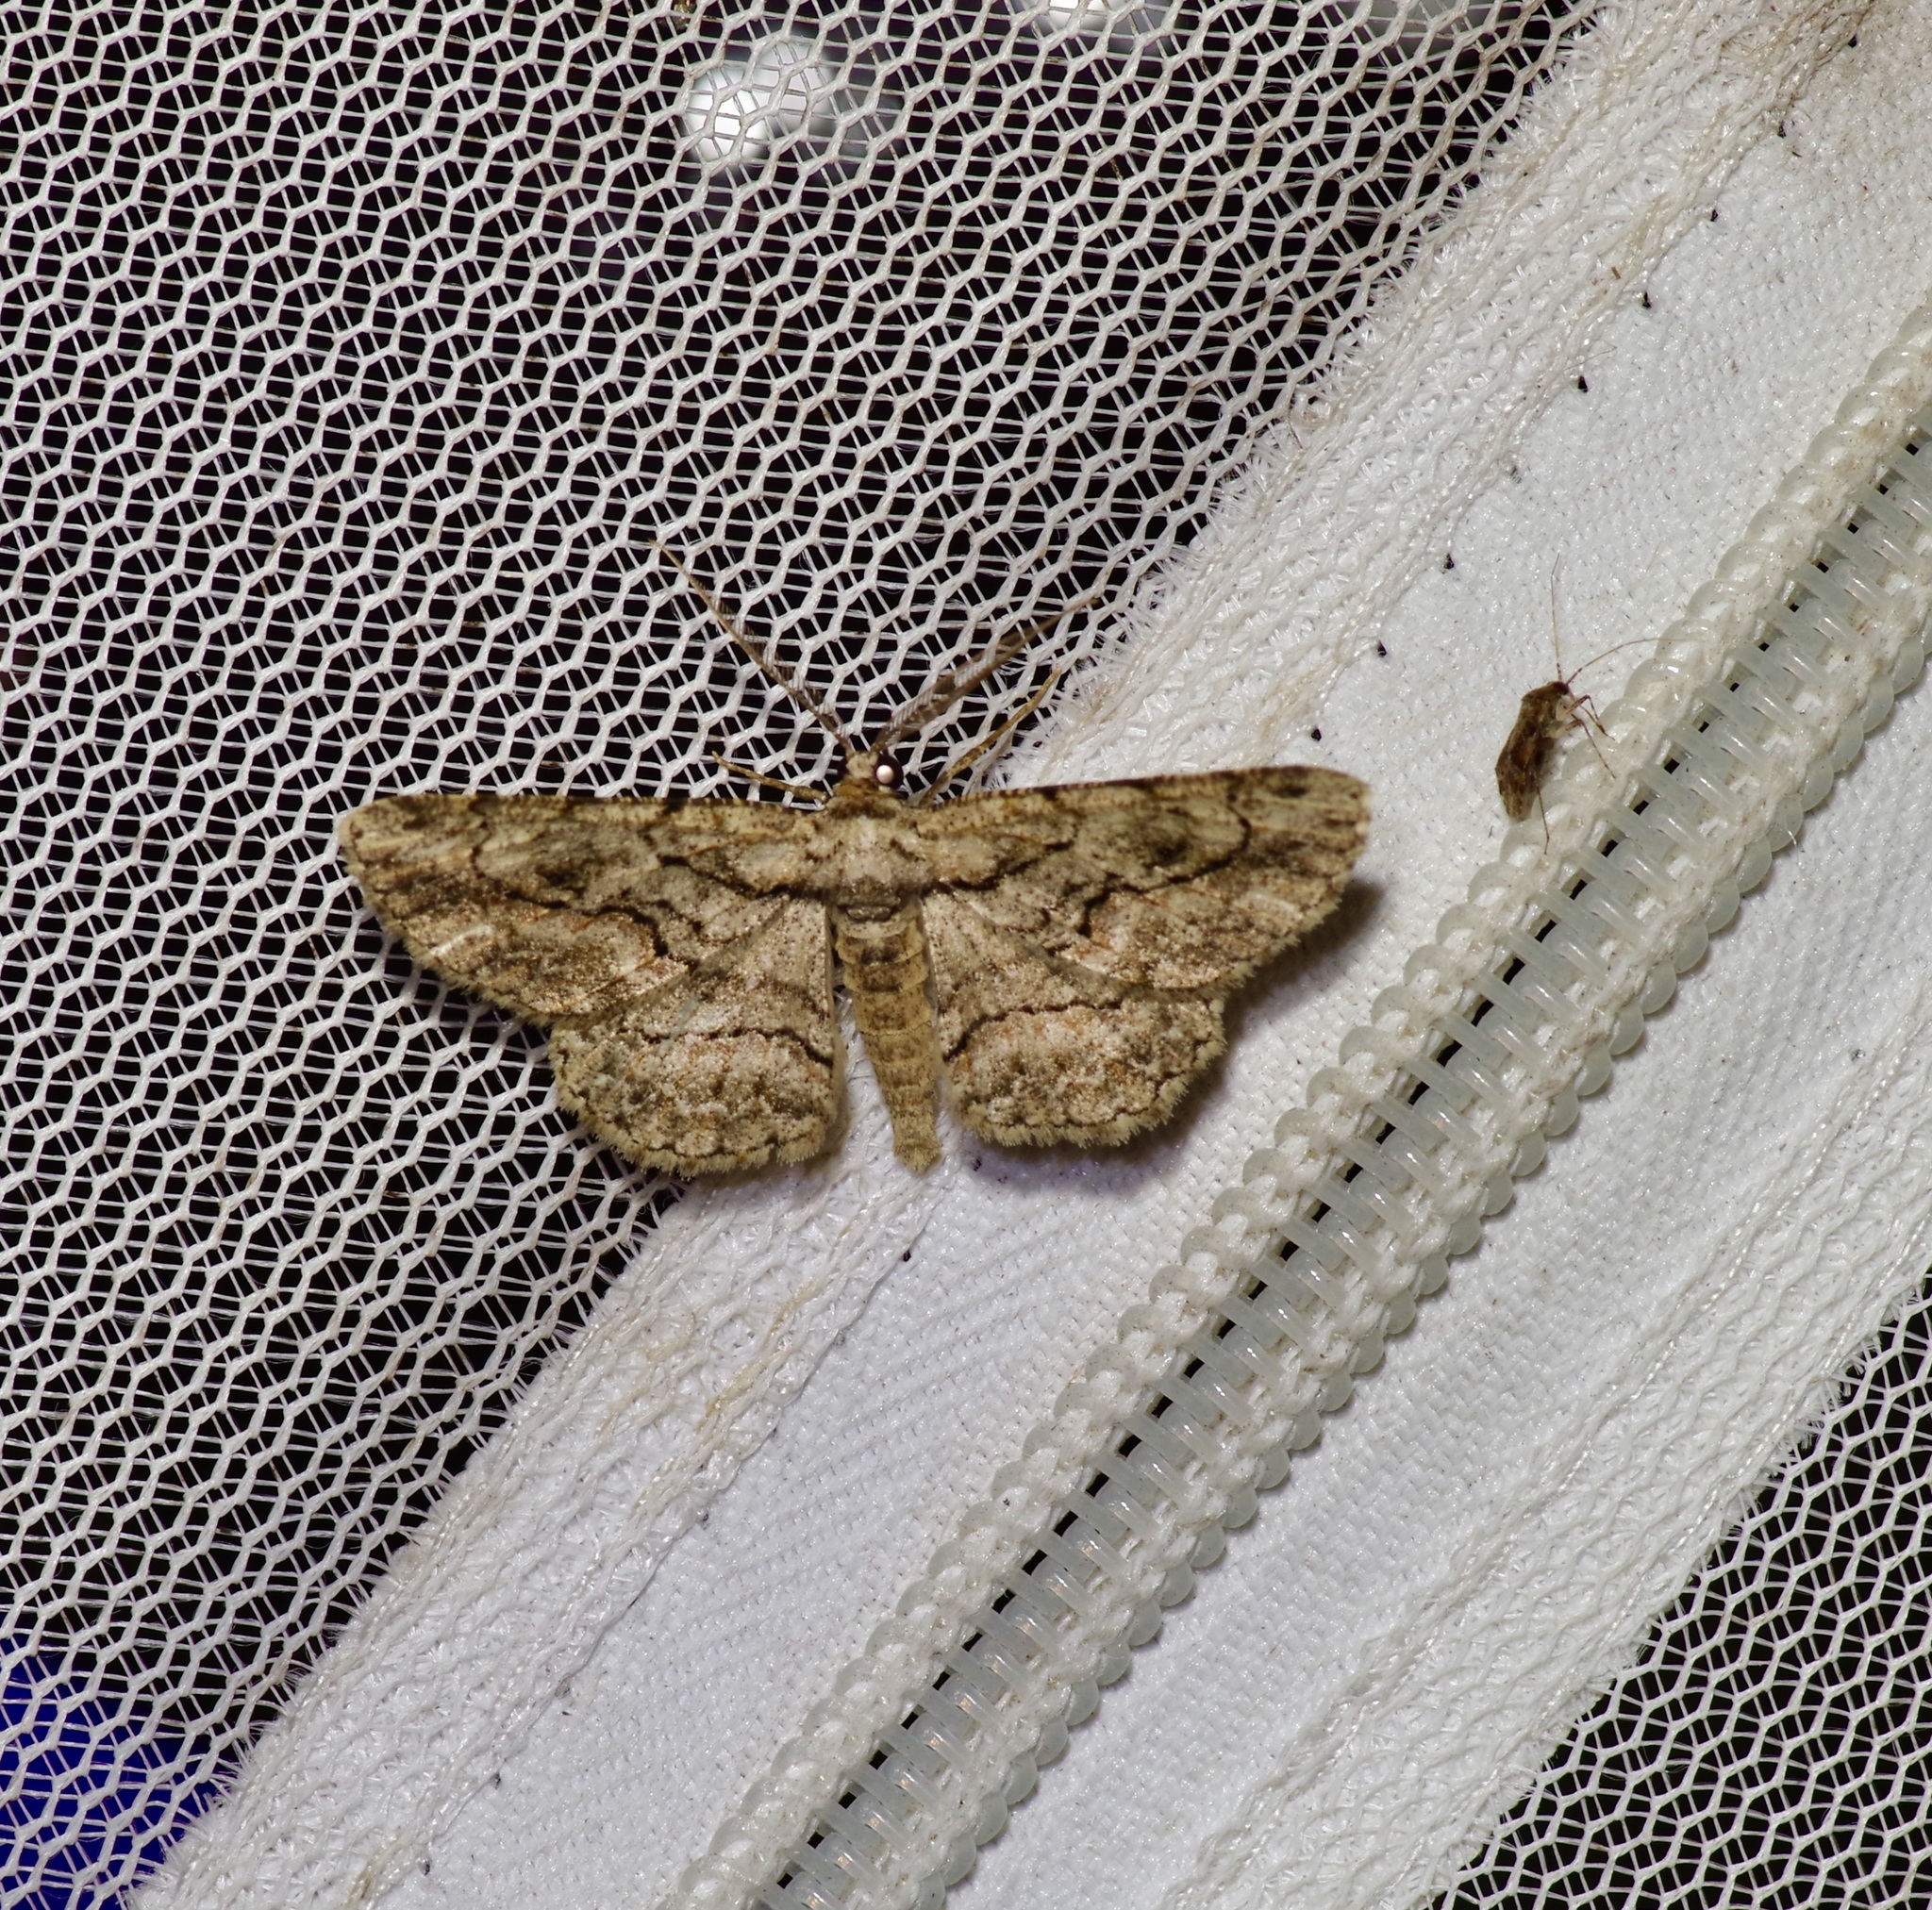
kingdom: Animalia
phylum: Arthropoda
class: Insecta
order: Lepidoptera
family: Geometridae
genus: Anavitrinella
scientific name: Anavitrinella pampinaria
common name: Common gray
